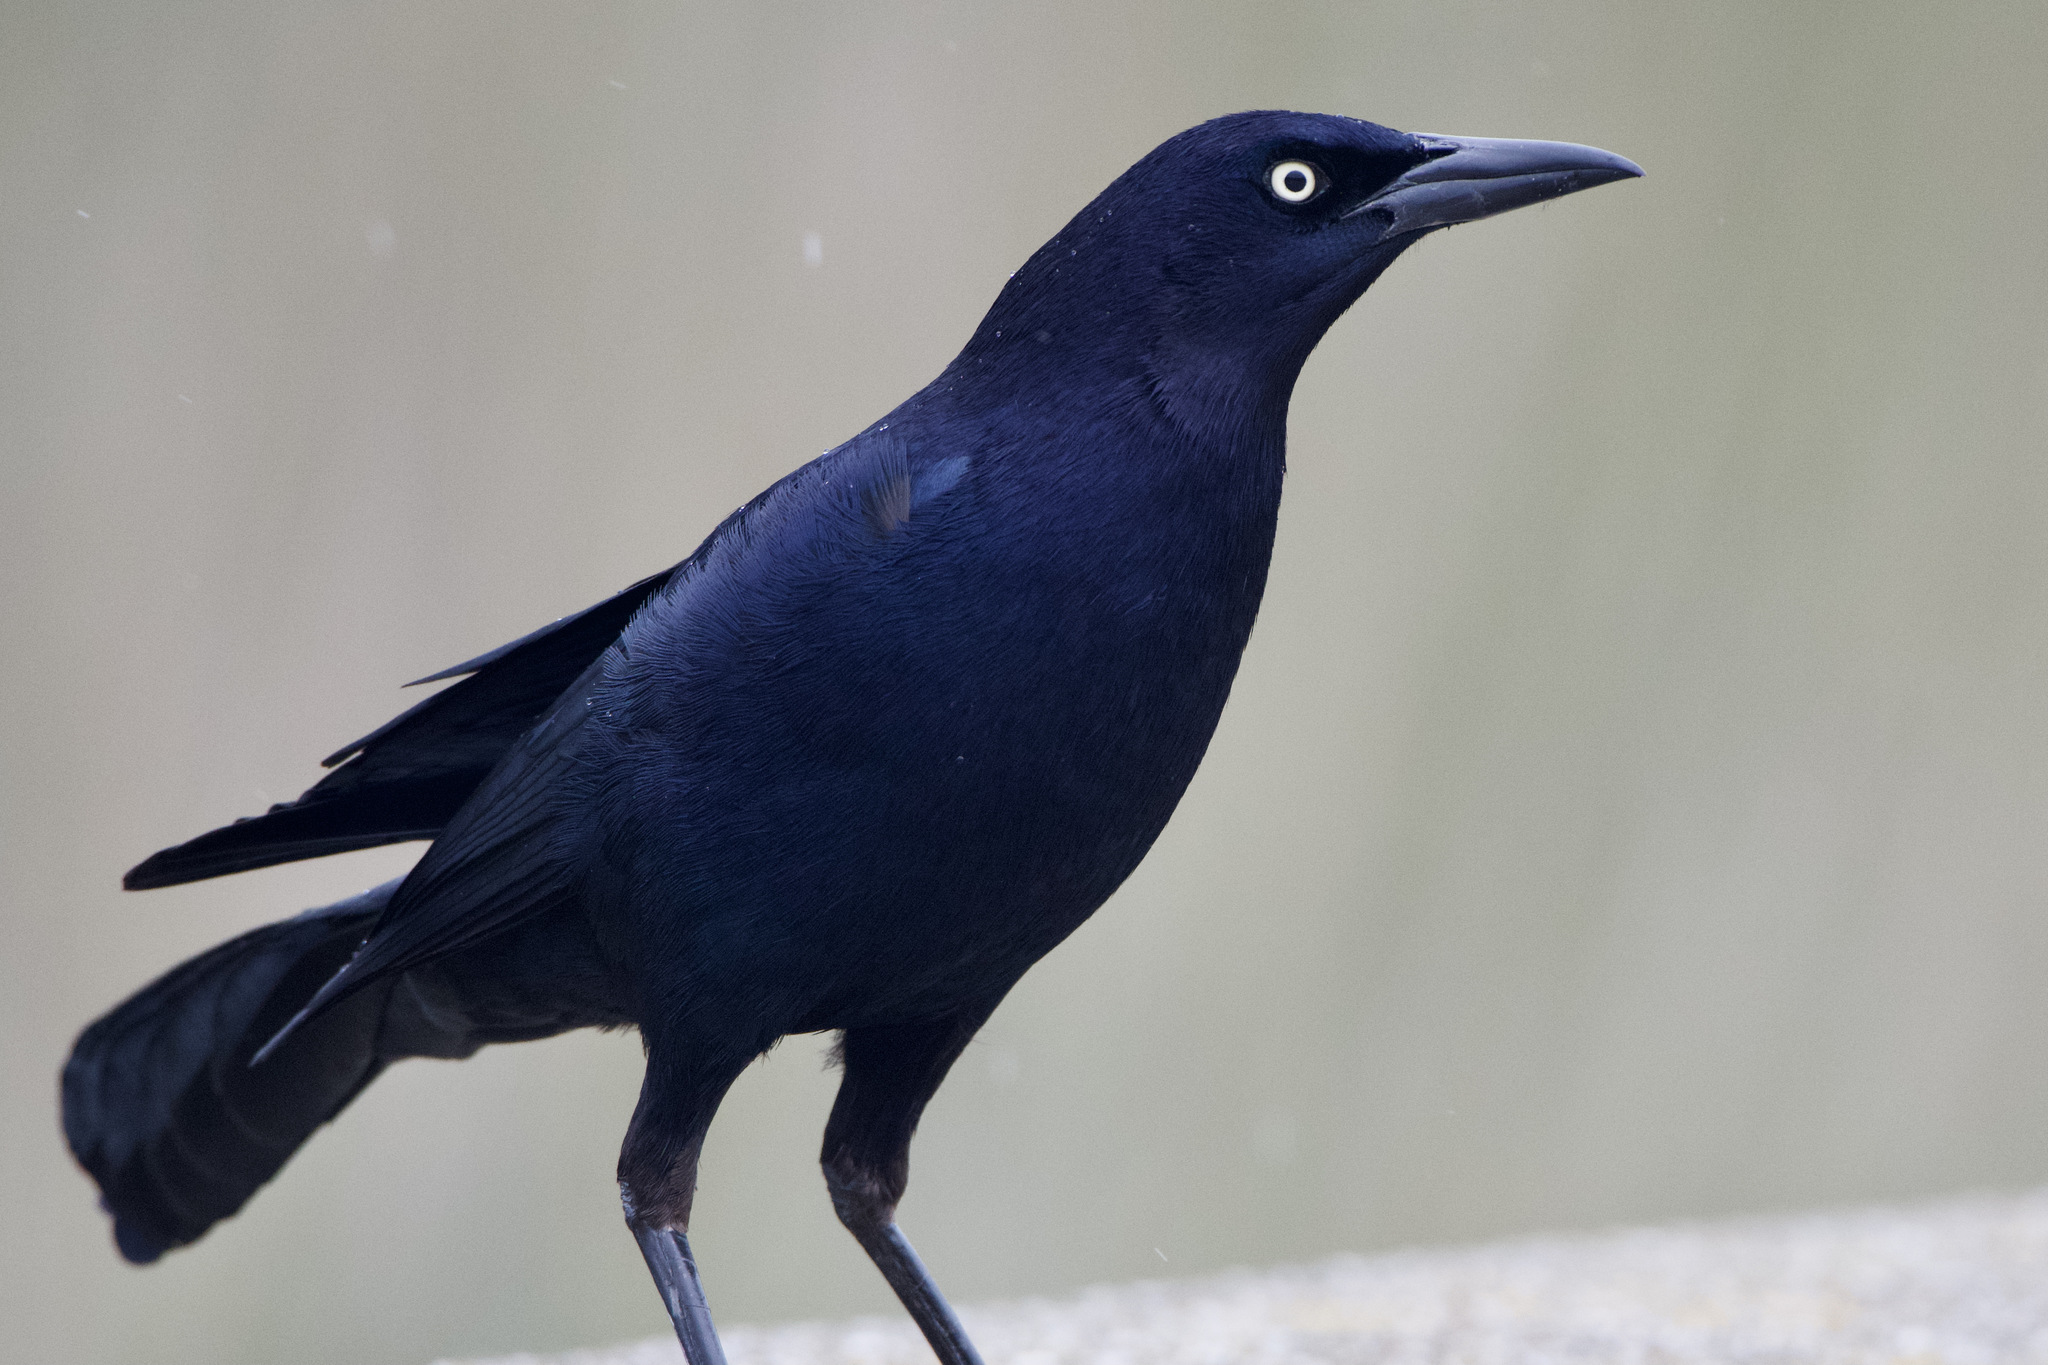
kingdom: Animalia
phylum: Chordata
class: Aves
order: Passeriformes
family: Icteridae
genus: Quiscalus
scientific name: Quiscalus mexicanus
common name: Great-tailed grackle
